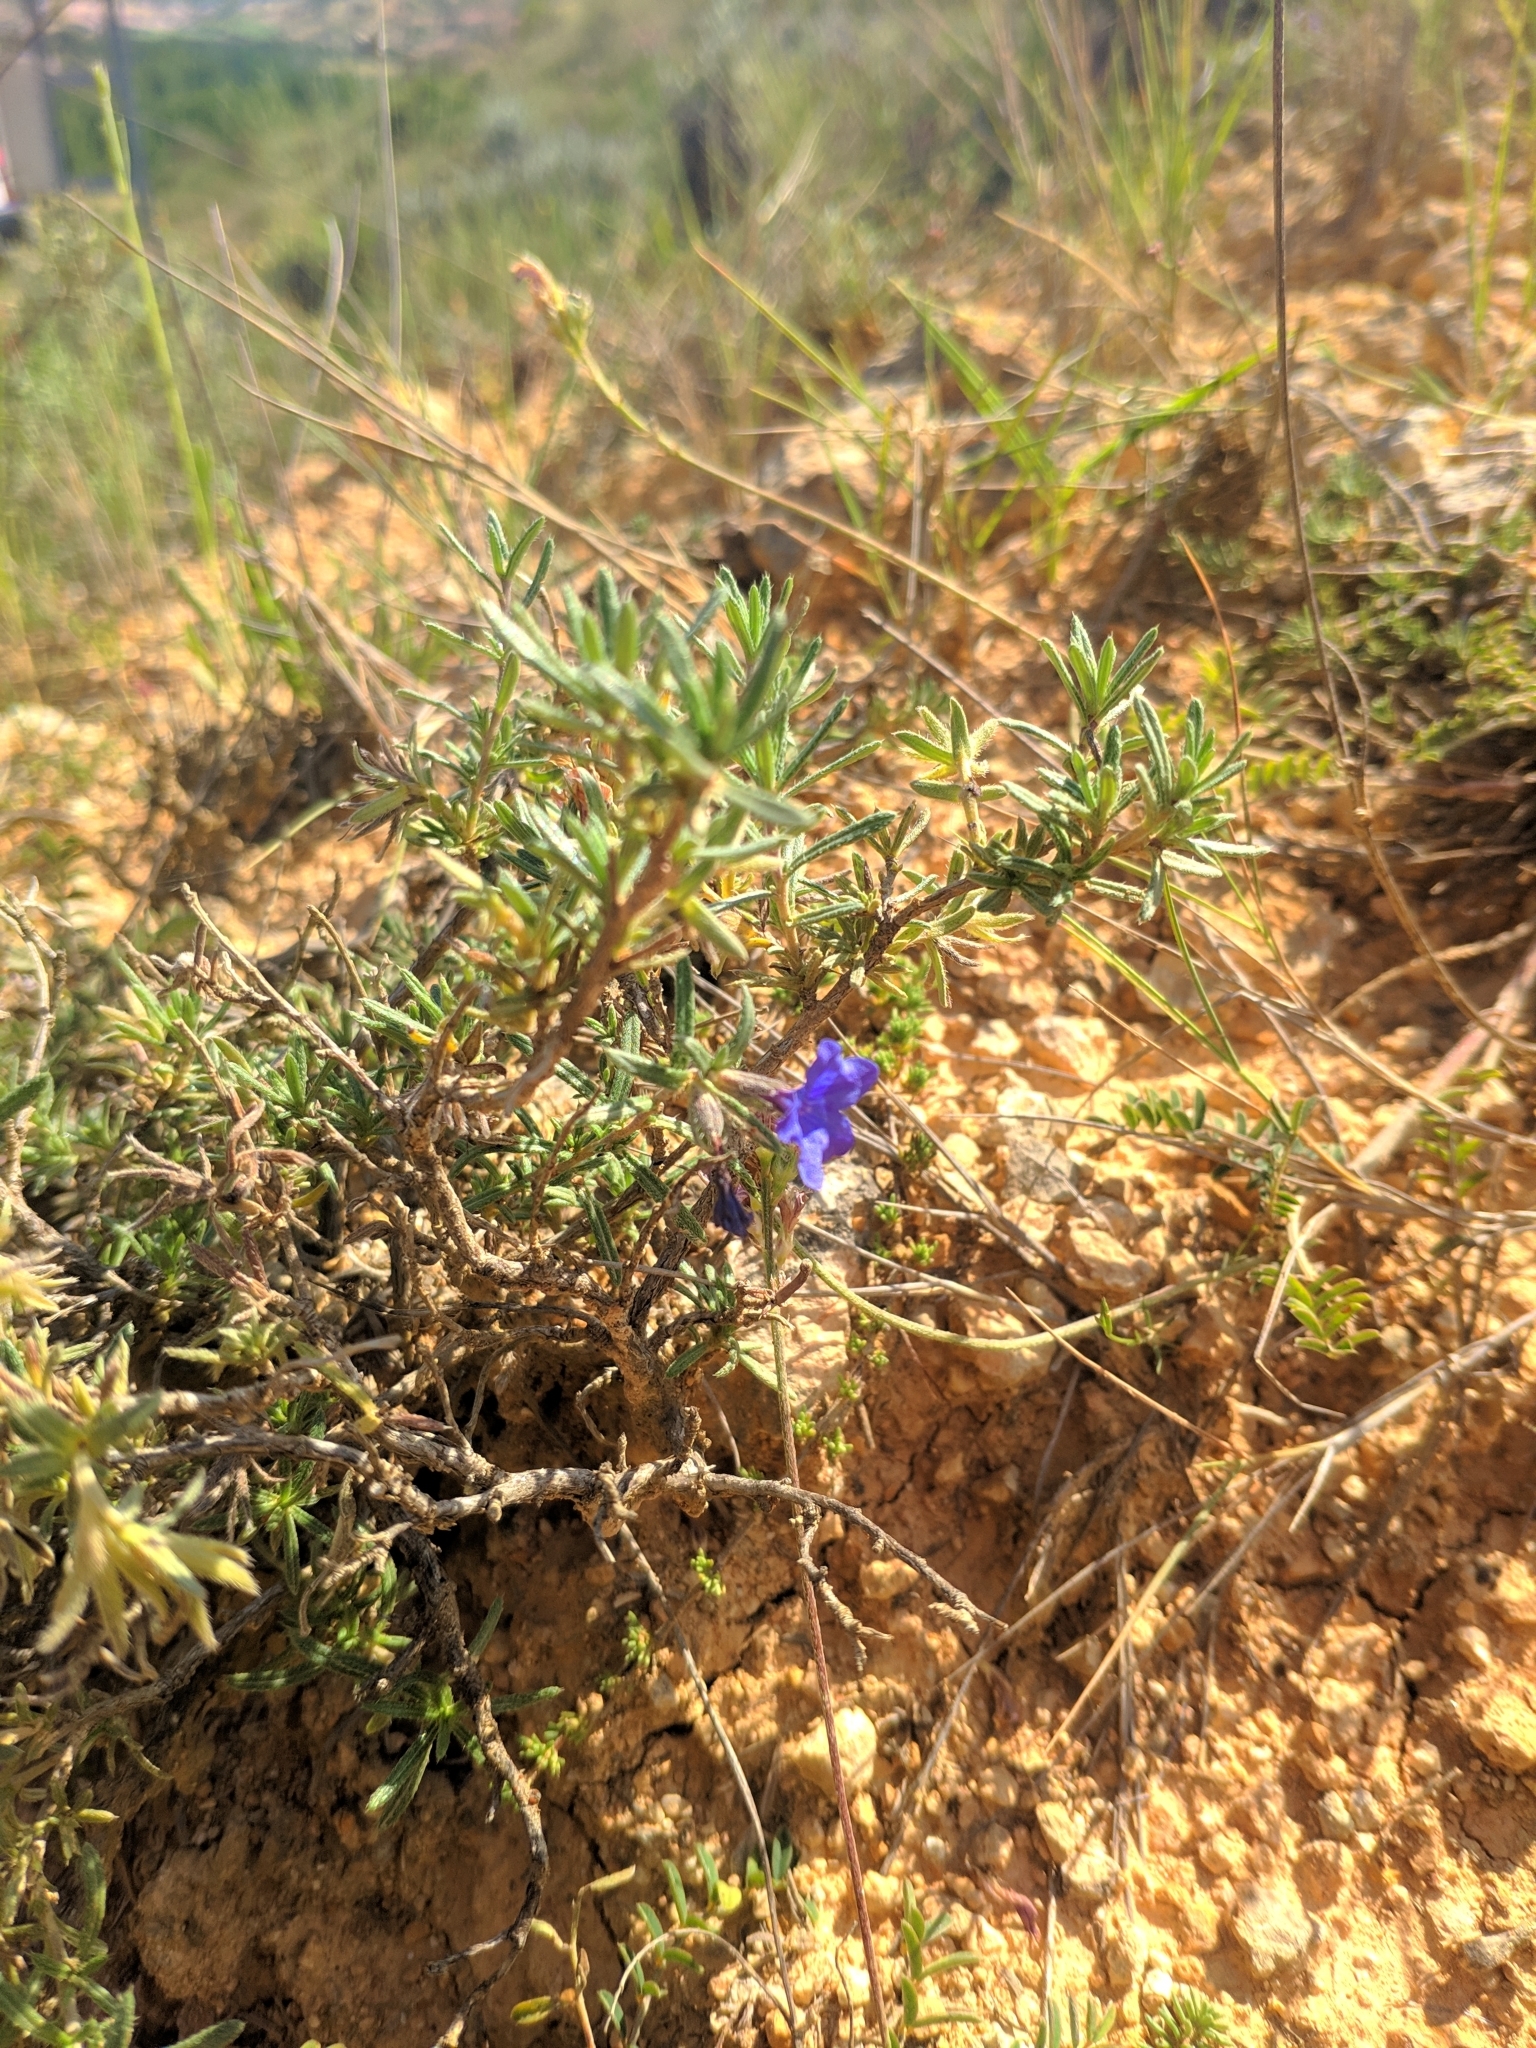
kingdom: Plantae
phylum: Tracheophyta
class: Magnoliopsida
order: Boraginales
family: Boraginaceae
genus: Lithodora
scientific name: Lithodora fruticosa
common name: Shrubby gromwell
